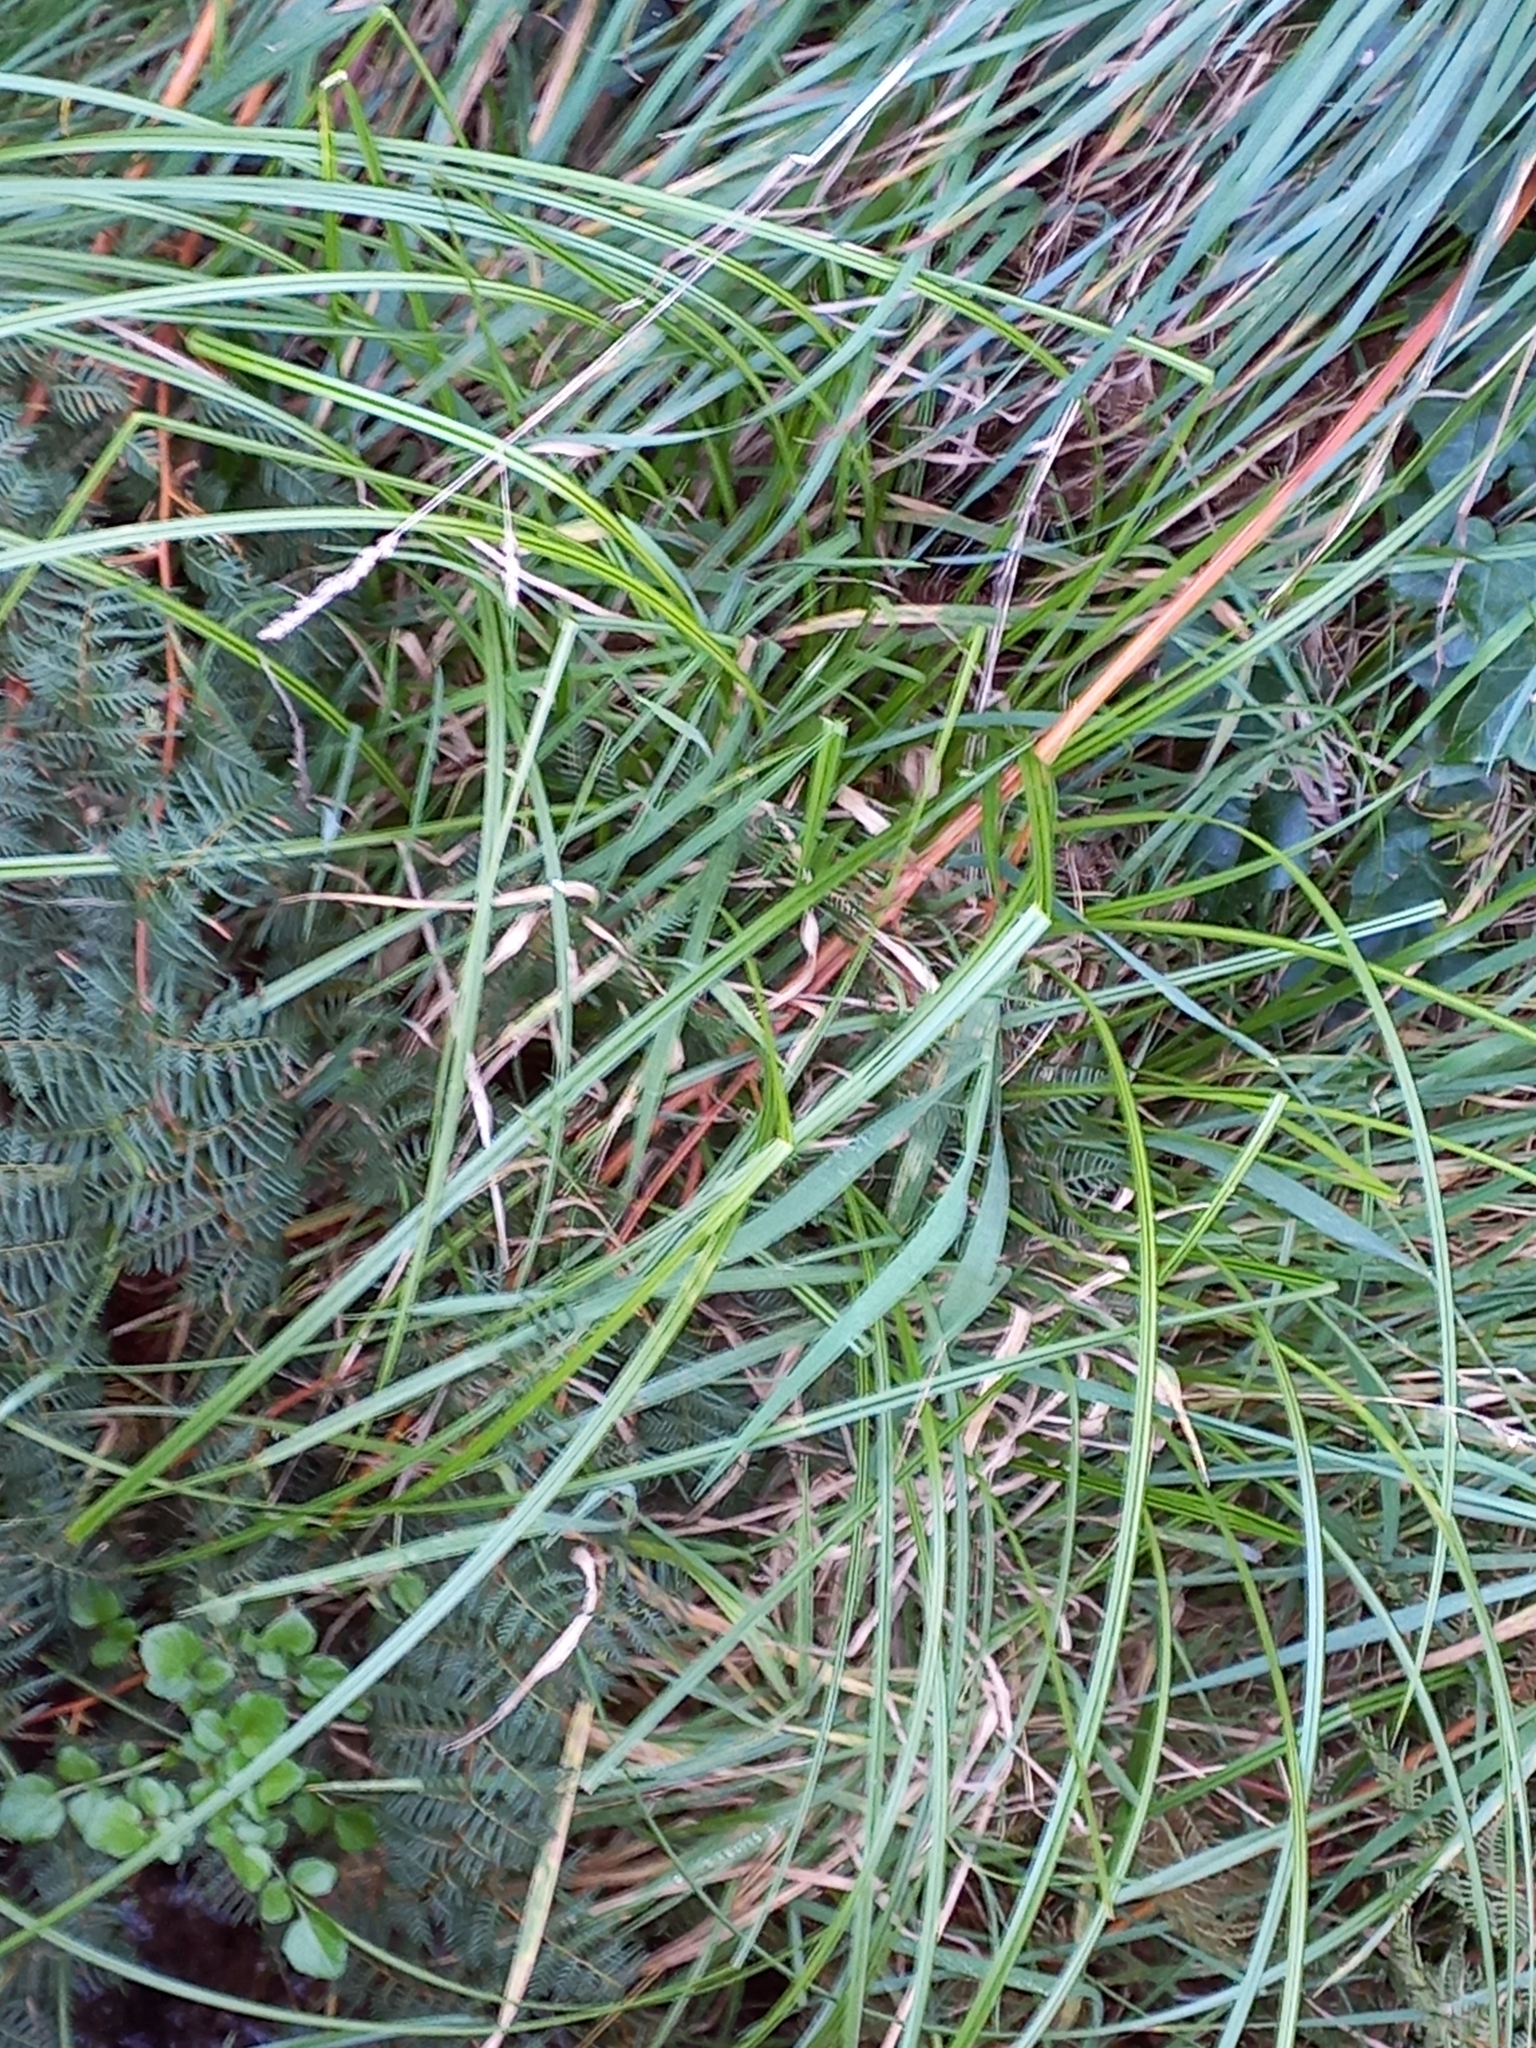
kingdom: Plantae
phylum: Tracheophyta
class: Liliopsida
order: Poales
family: Cyperaceae
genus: Carex
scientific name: Carex maorica
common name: Maori sedge
